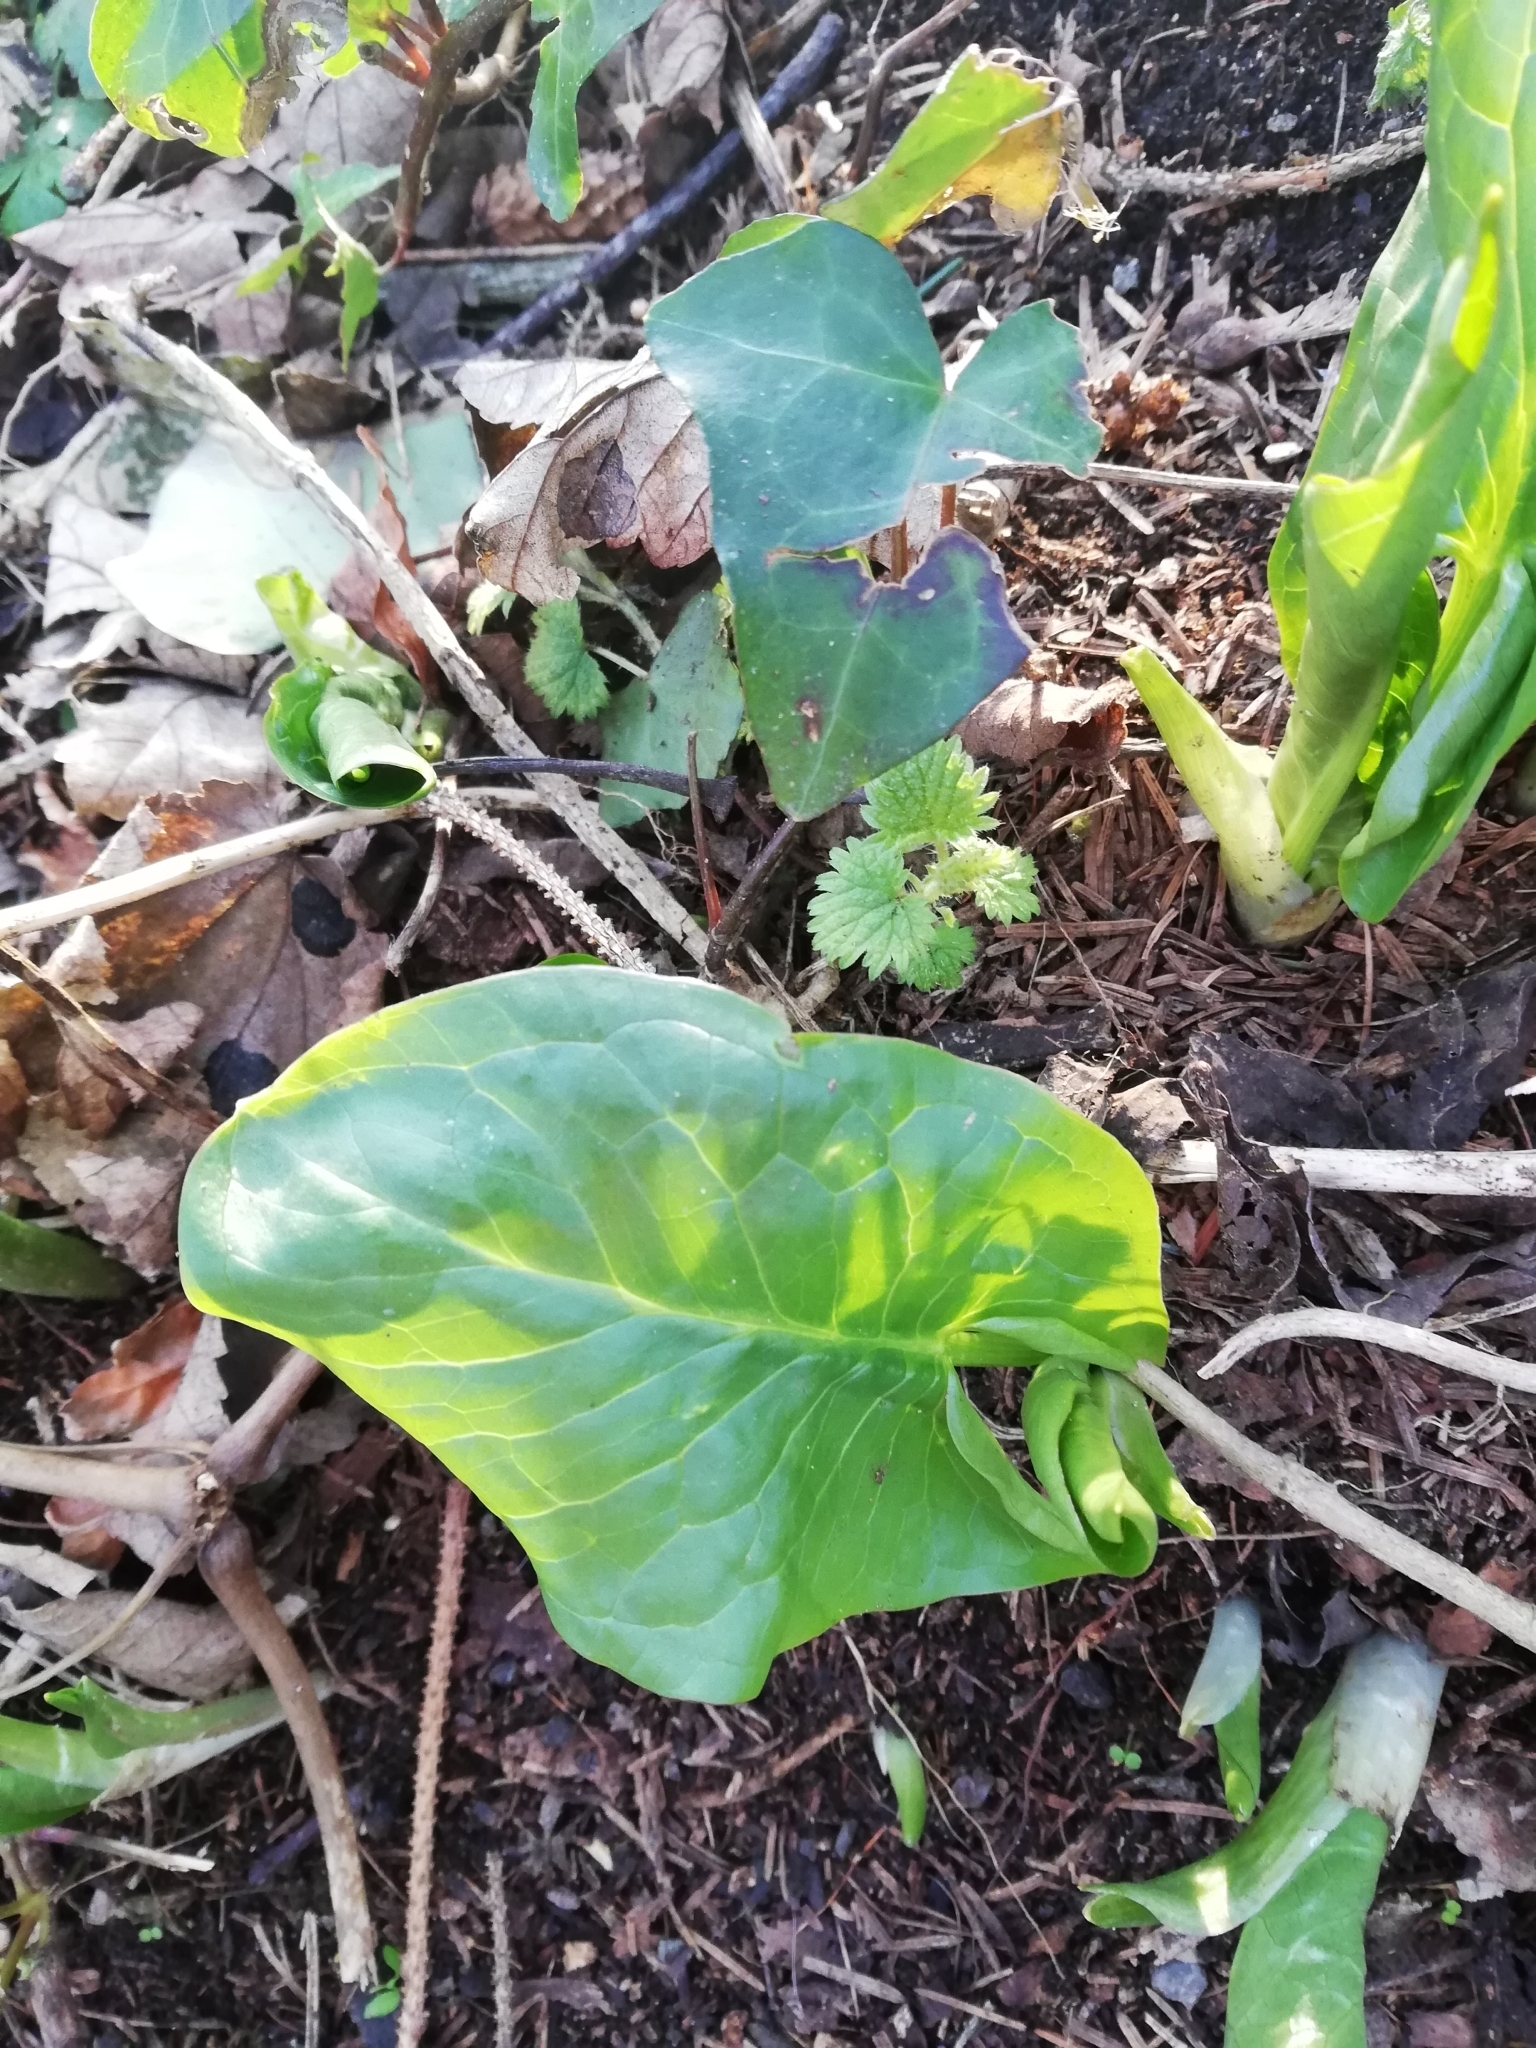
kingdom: Plantae
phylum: Tracheophyta
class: Liliopsida
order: Alismatales
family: Araceae
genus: Arum
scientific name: Arum maculatum
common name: Lords-and-ladies
